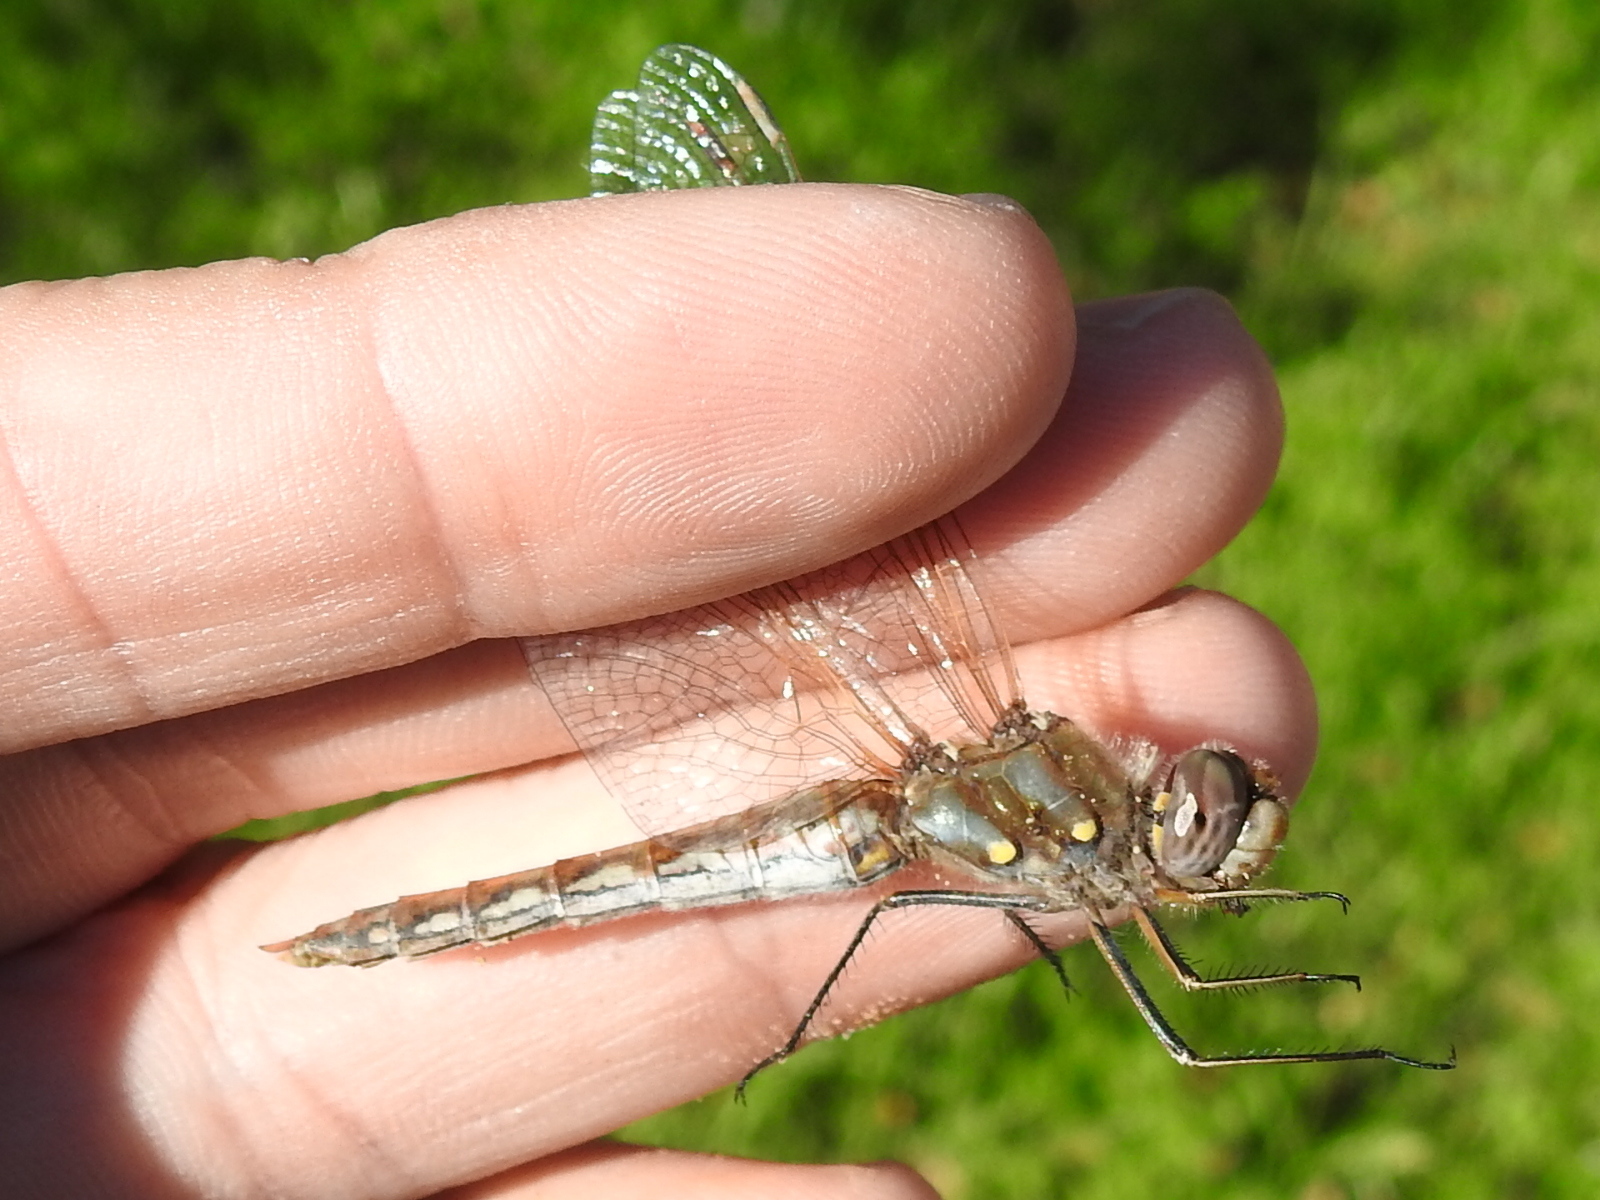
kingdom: Animalia
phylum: Arthropoda
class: Insecta
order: Odonata
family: Libellulidae
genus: Sympetrum
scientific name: Sympetrum corruptum
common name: Variegated meadowhawk
